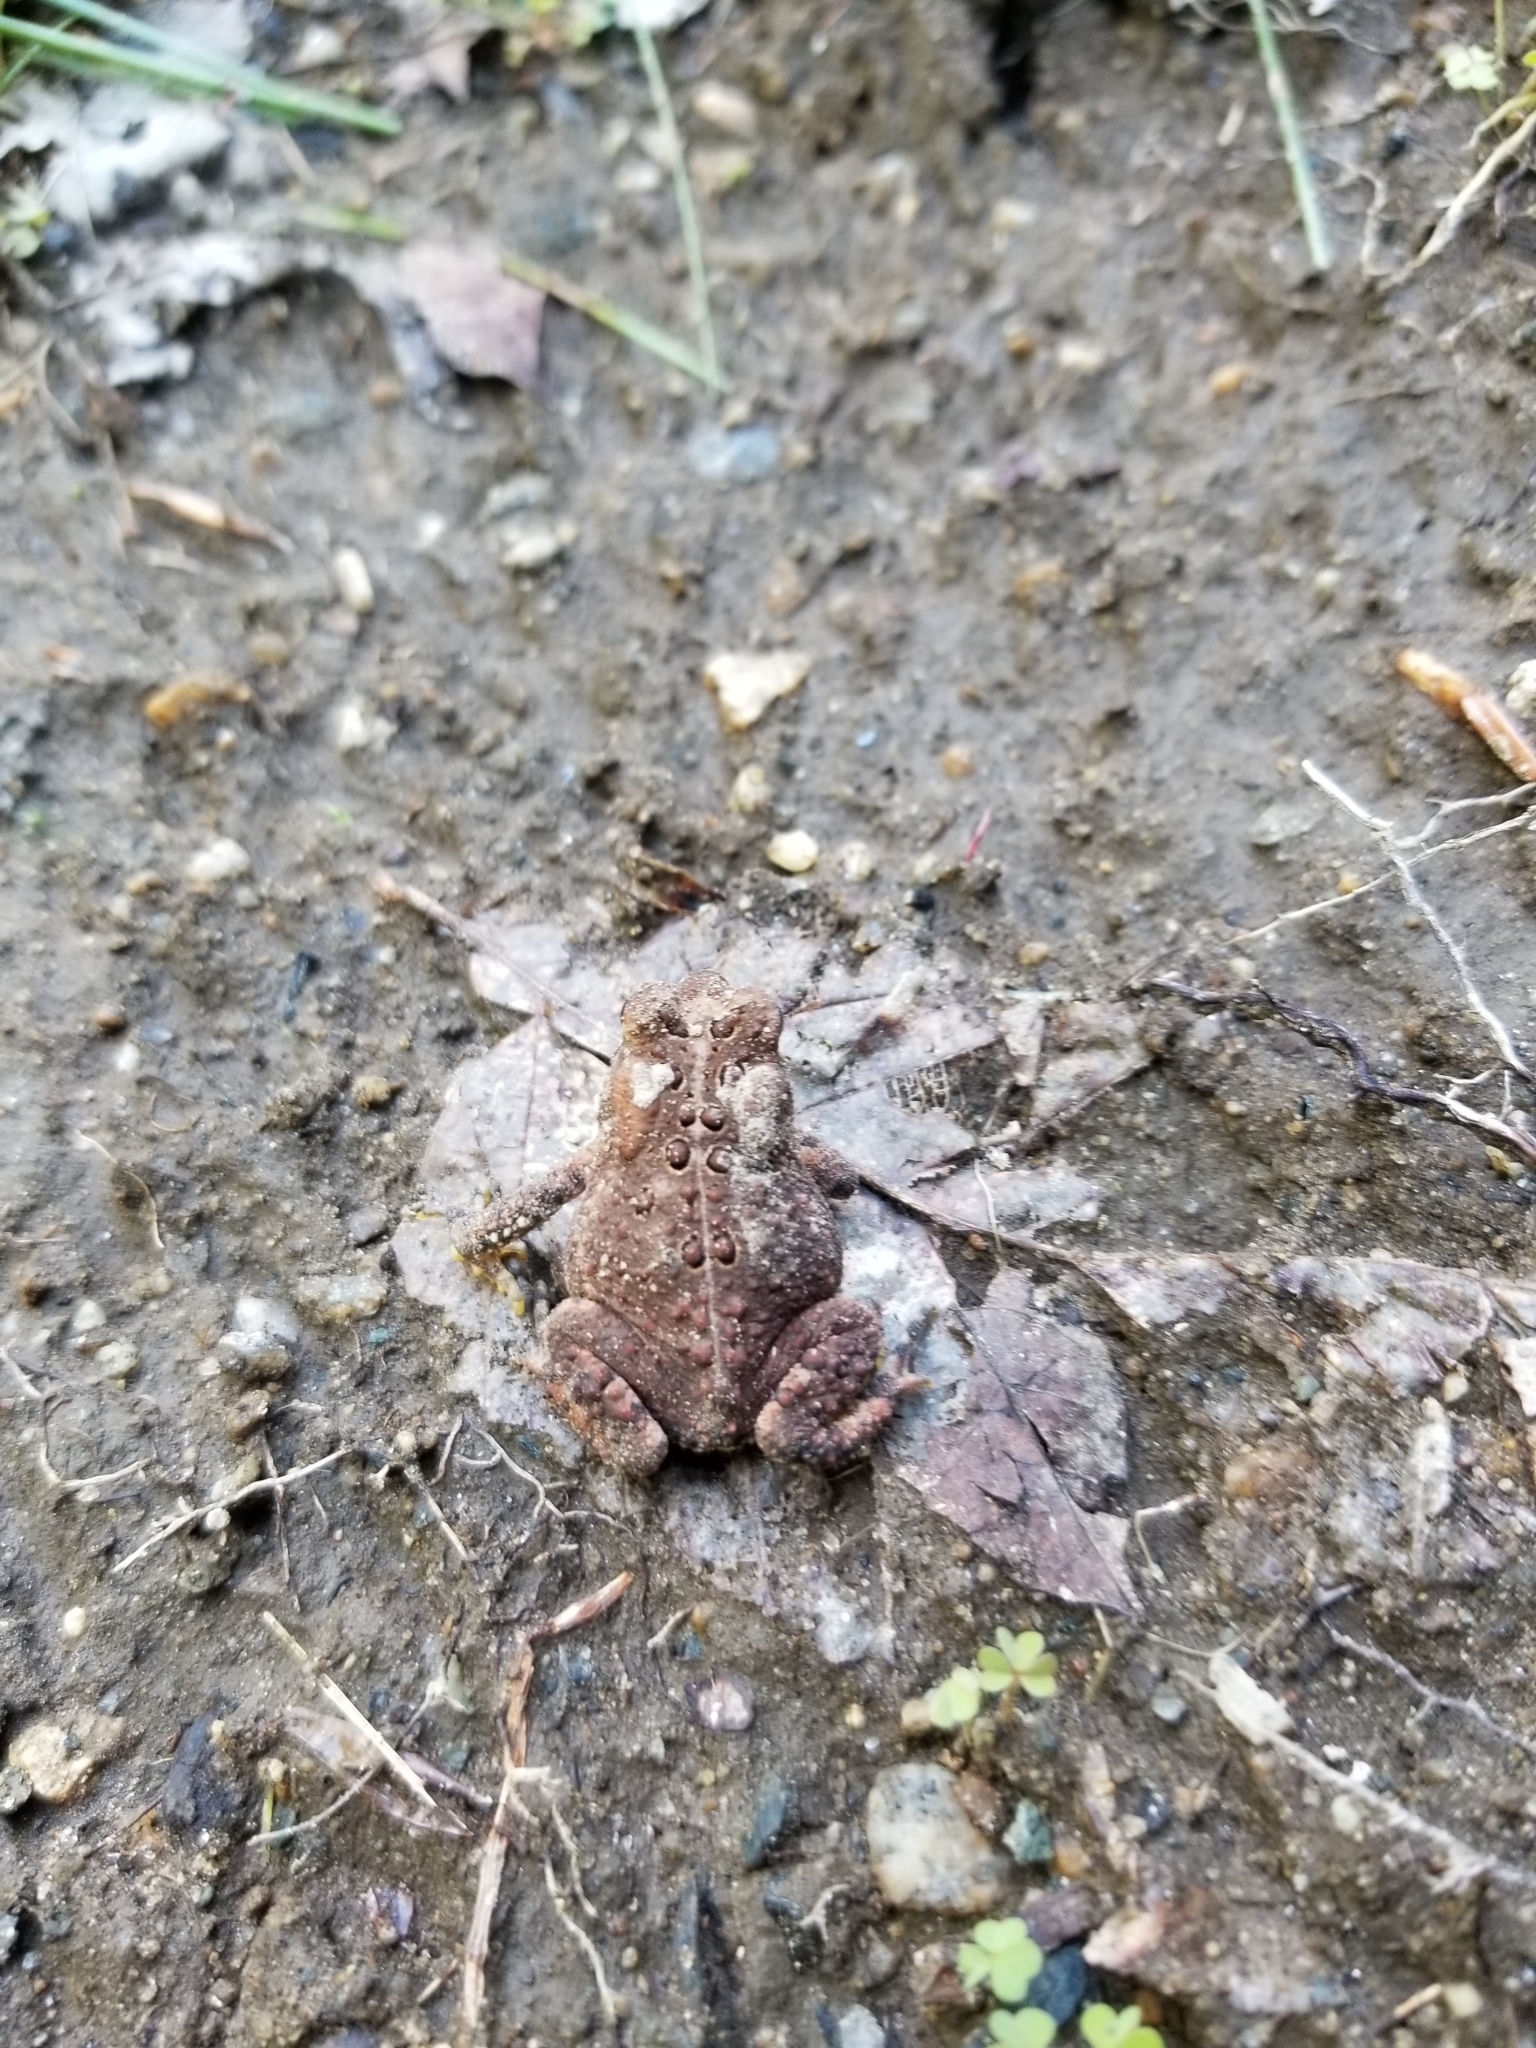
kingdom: Animalia
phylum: Chordata
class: Amphibia
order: Anura
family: Bufonidae
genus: Anaxyrus
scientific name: Anaxyrus americanus
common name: American toad
